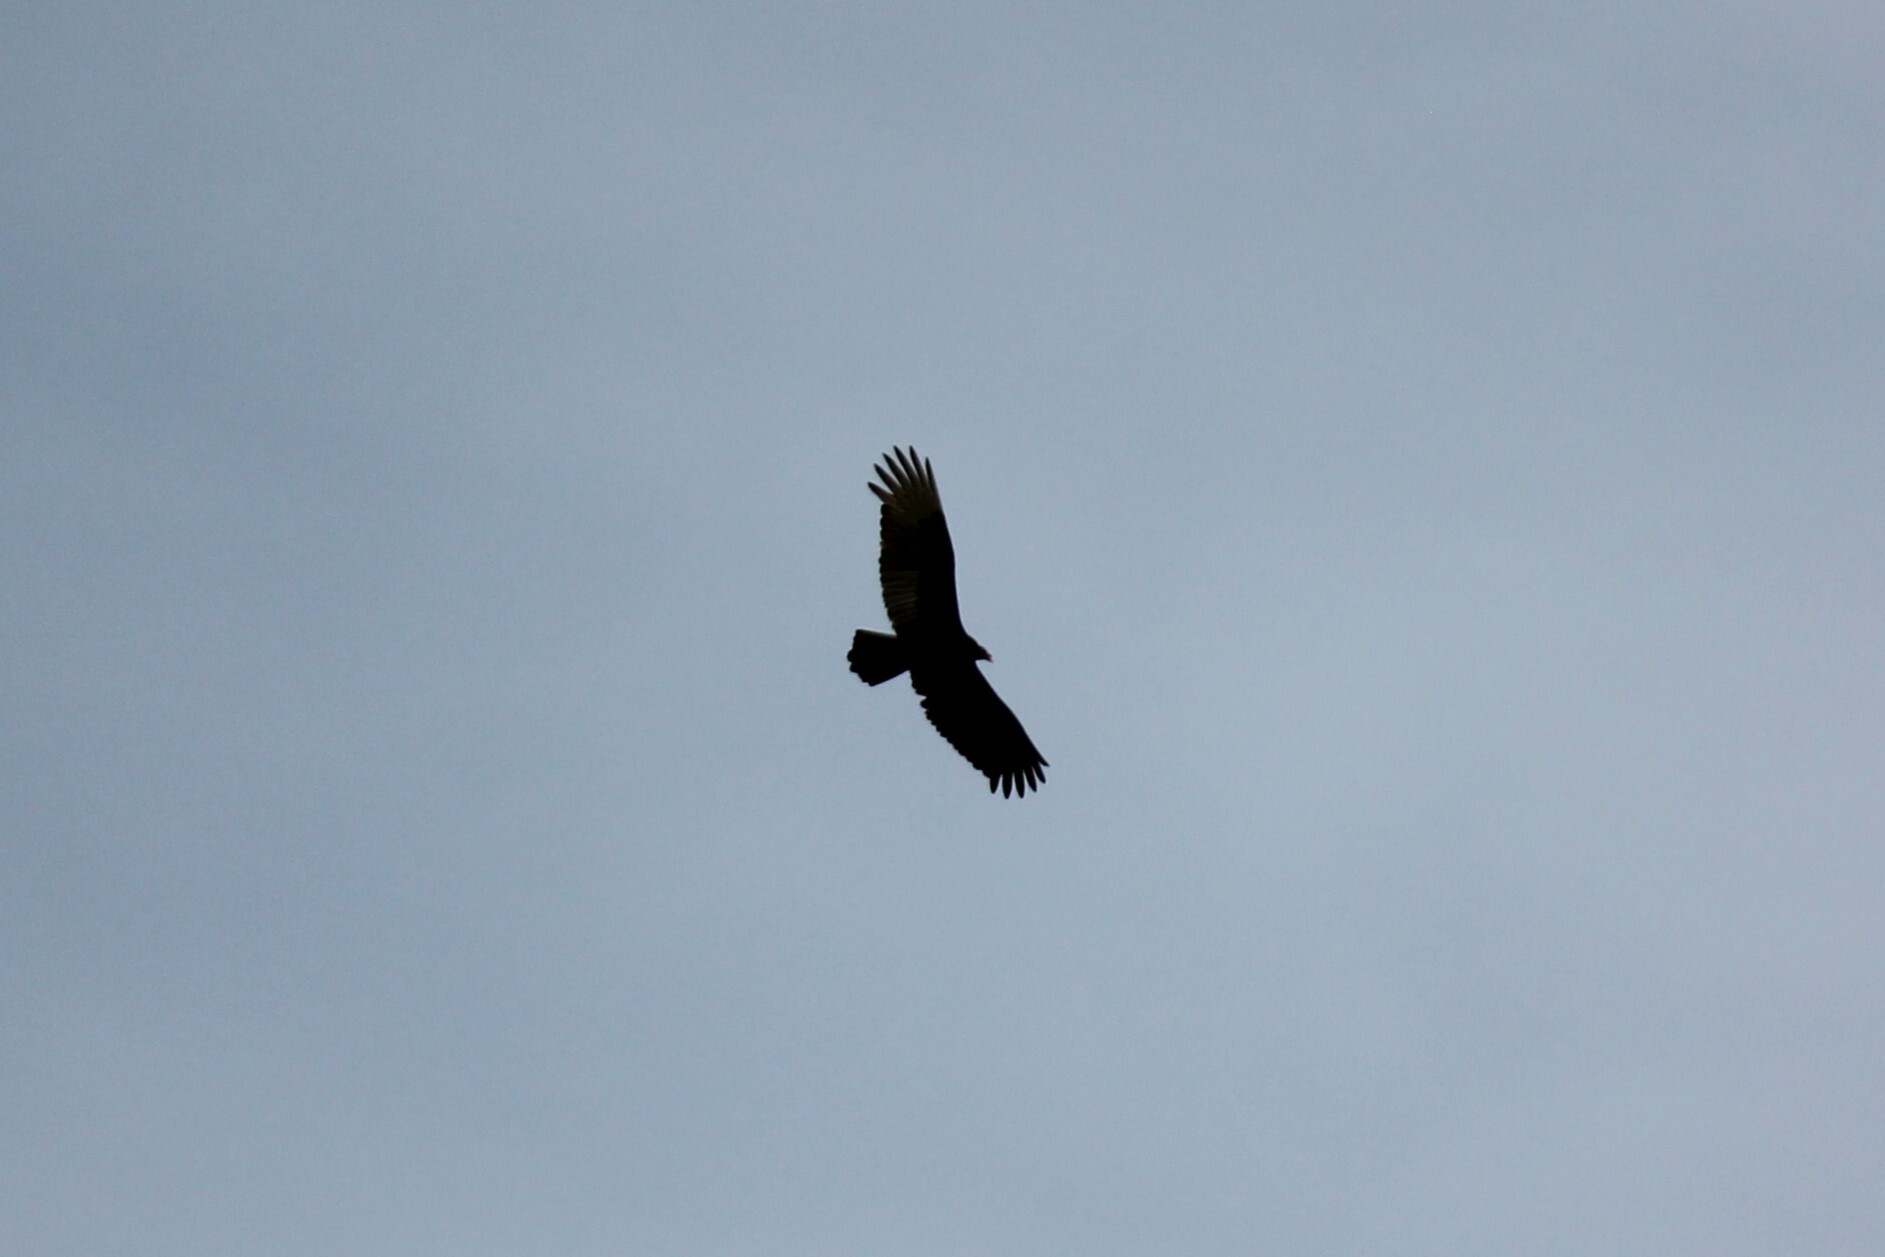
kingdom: Animalia
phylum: Chordata
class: Aves
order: Accipitriformes
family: Cathartidae
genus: Cathartes
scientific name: Cathartes aura
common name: Turkey vulture
